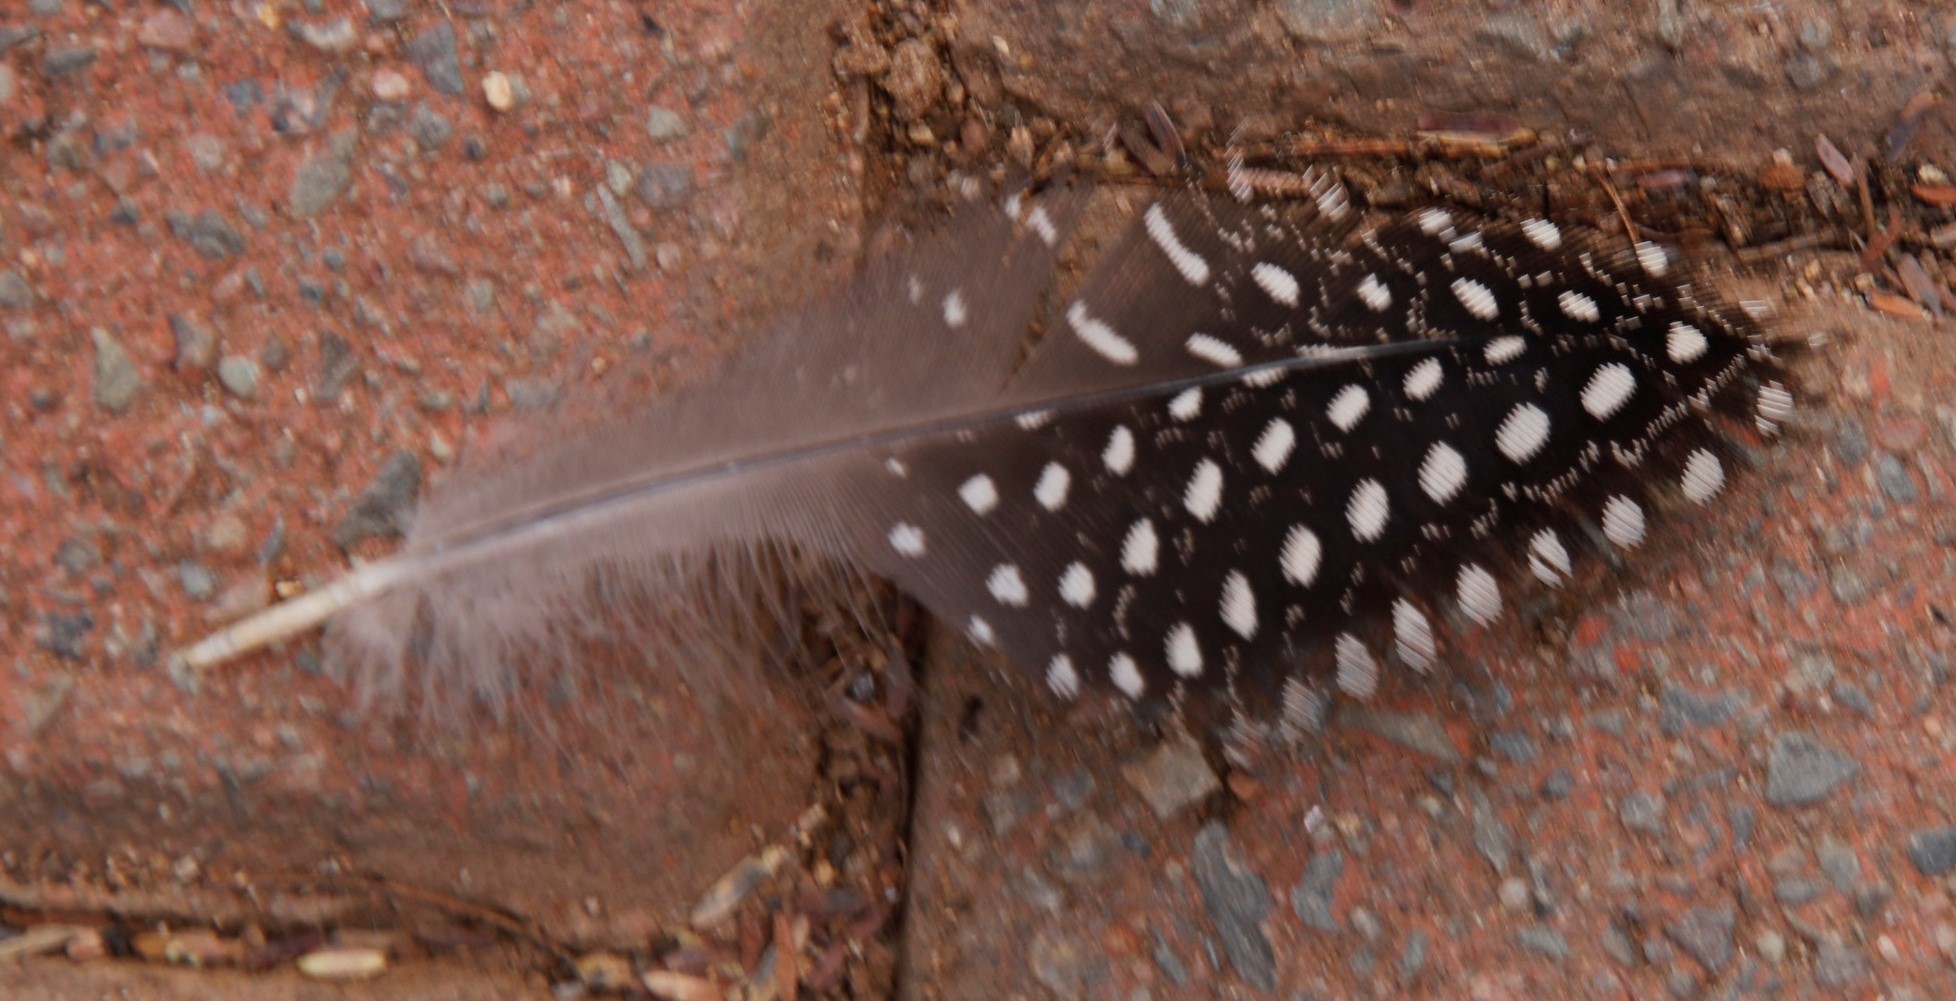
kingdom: Animalia
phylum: Chordata
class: Aves
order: Galliformes
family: Numididae
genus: Numida
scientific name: Numida meleagris
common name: Helmeted guineafowl
